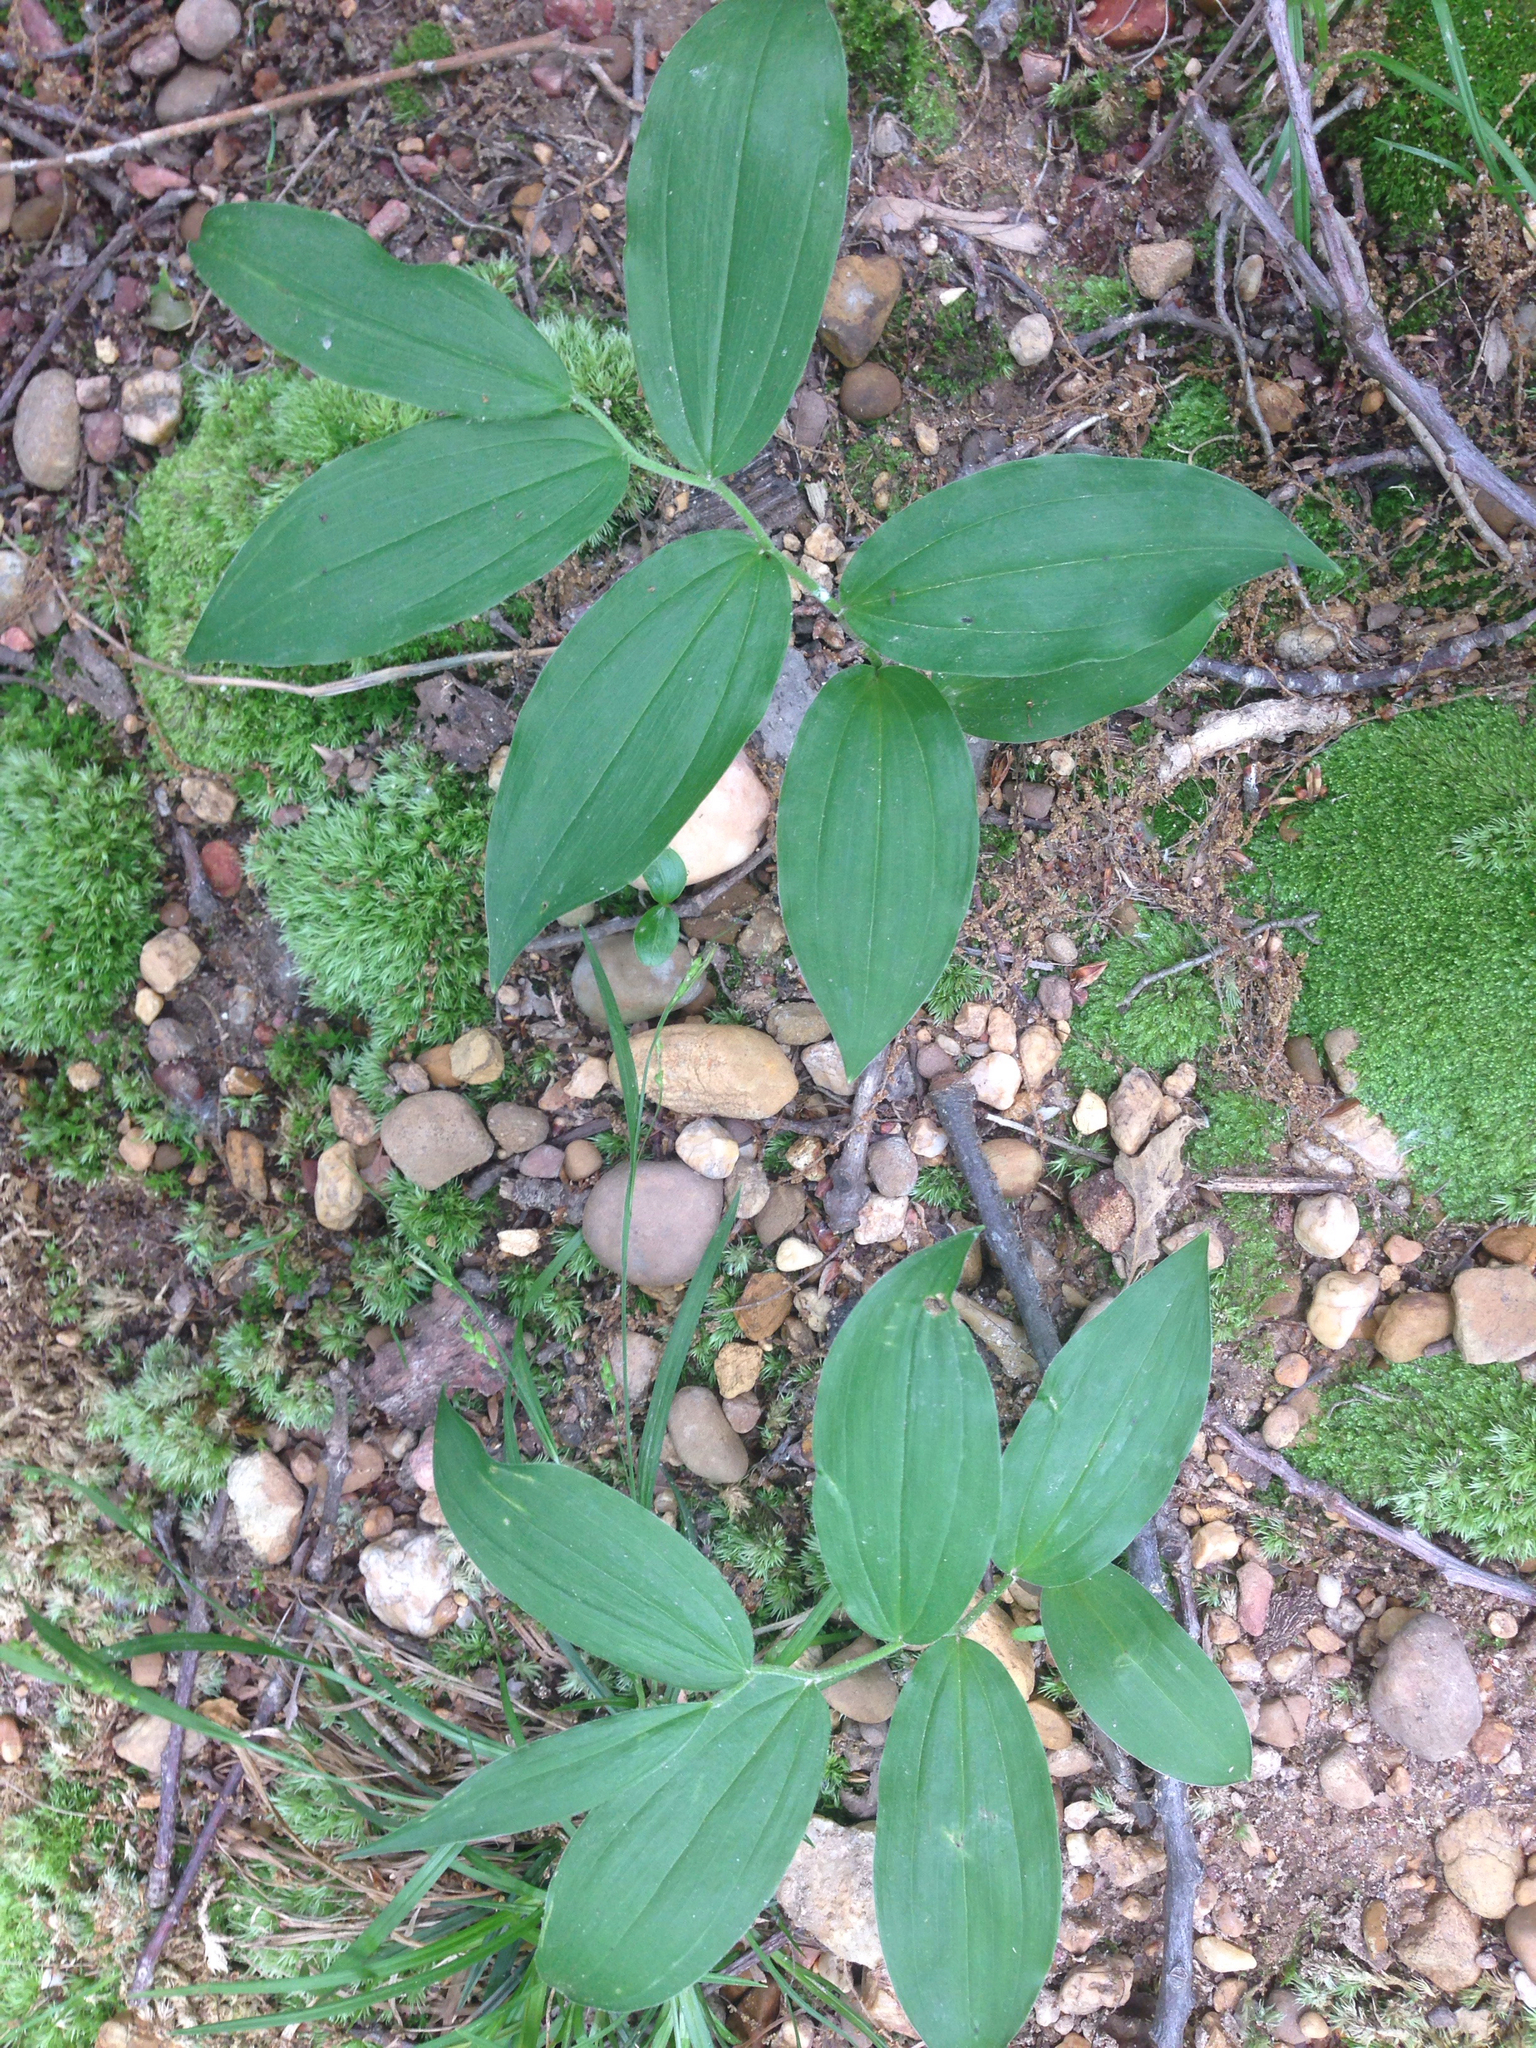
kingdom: Plantae
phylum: Tracheophyta
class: Liliopsida
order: Asparagales
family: Asparagaceae
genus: Maianthemum
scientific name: Maianthemum racemosum
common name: False spikenard
